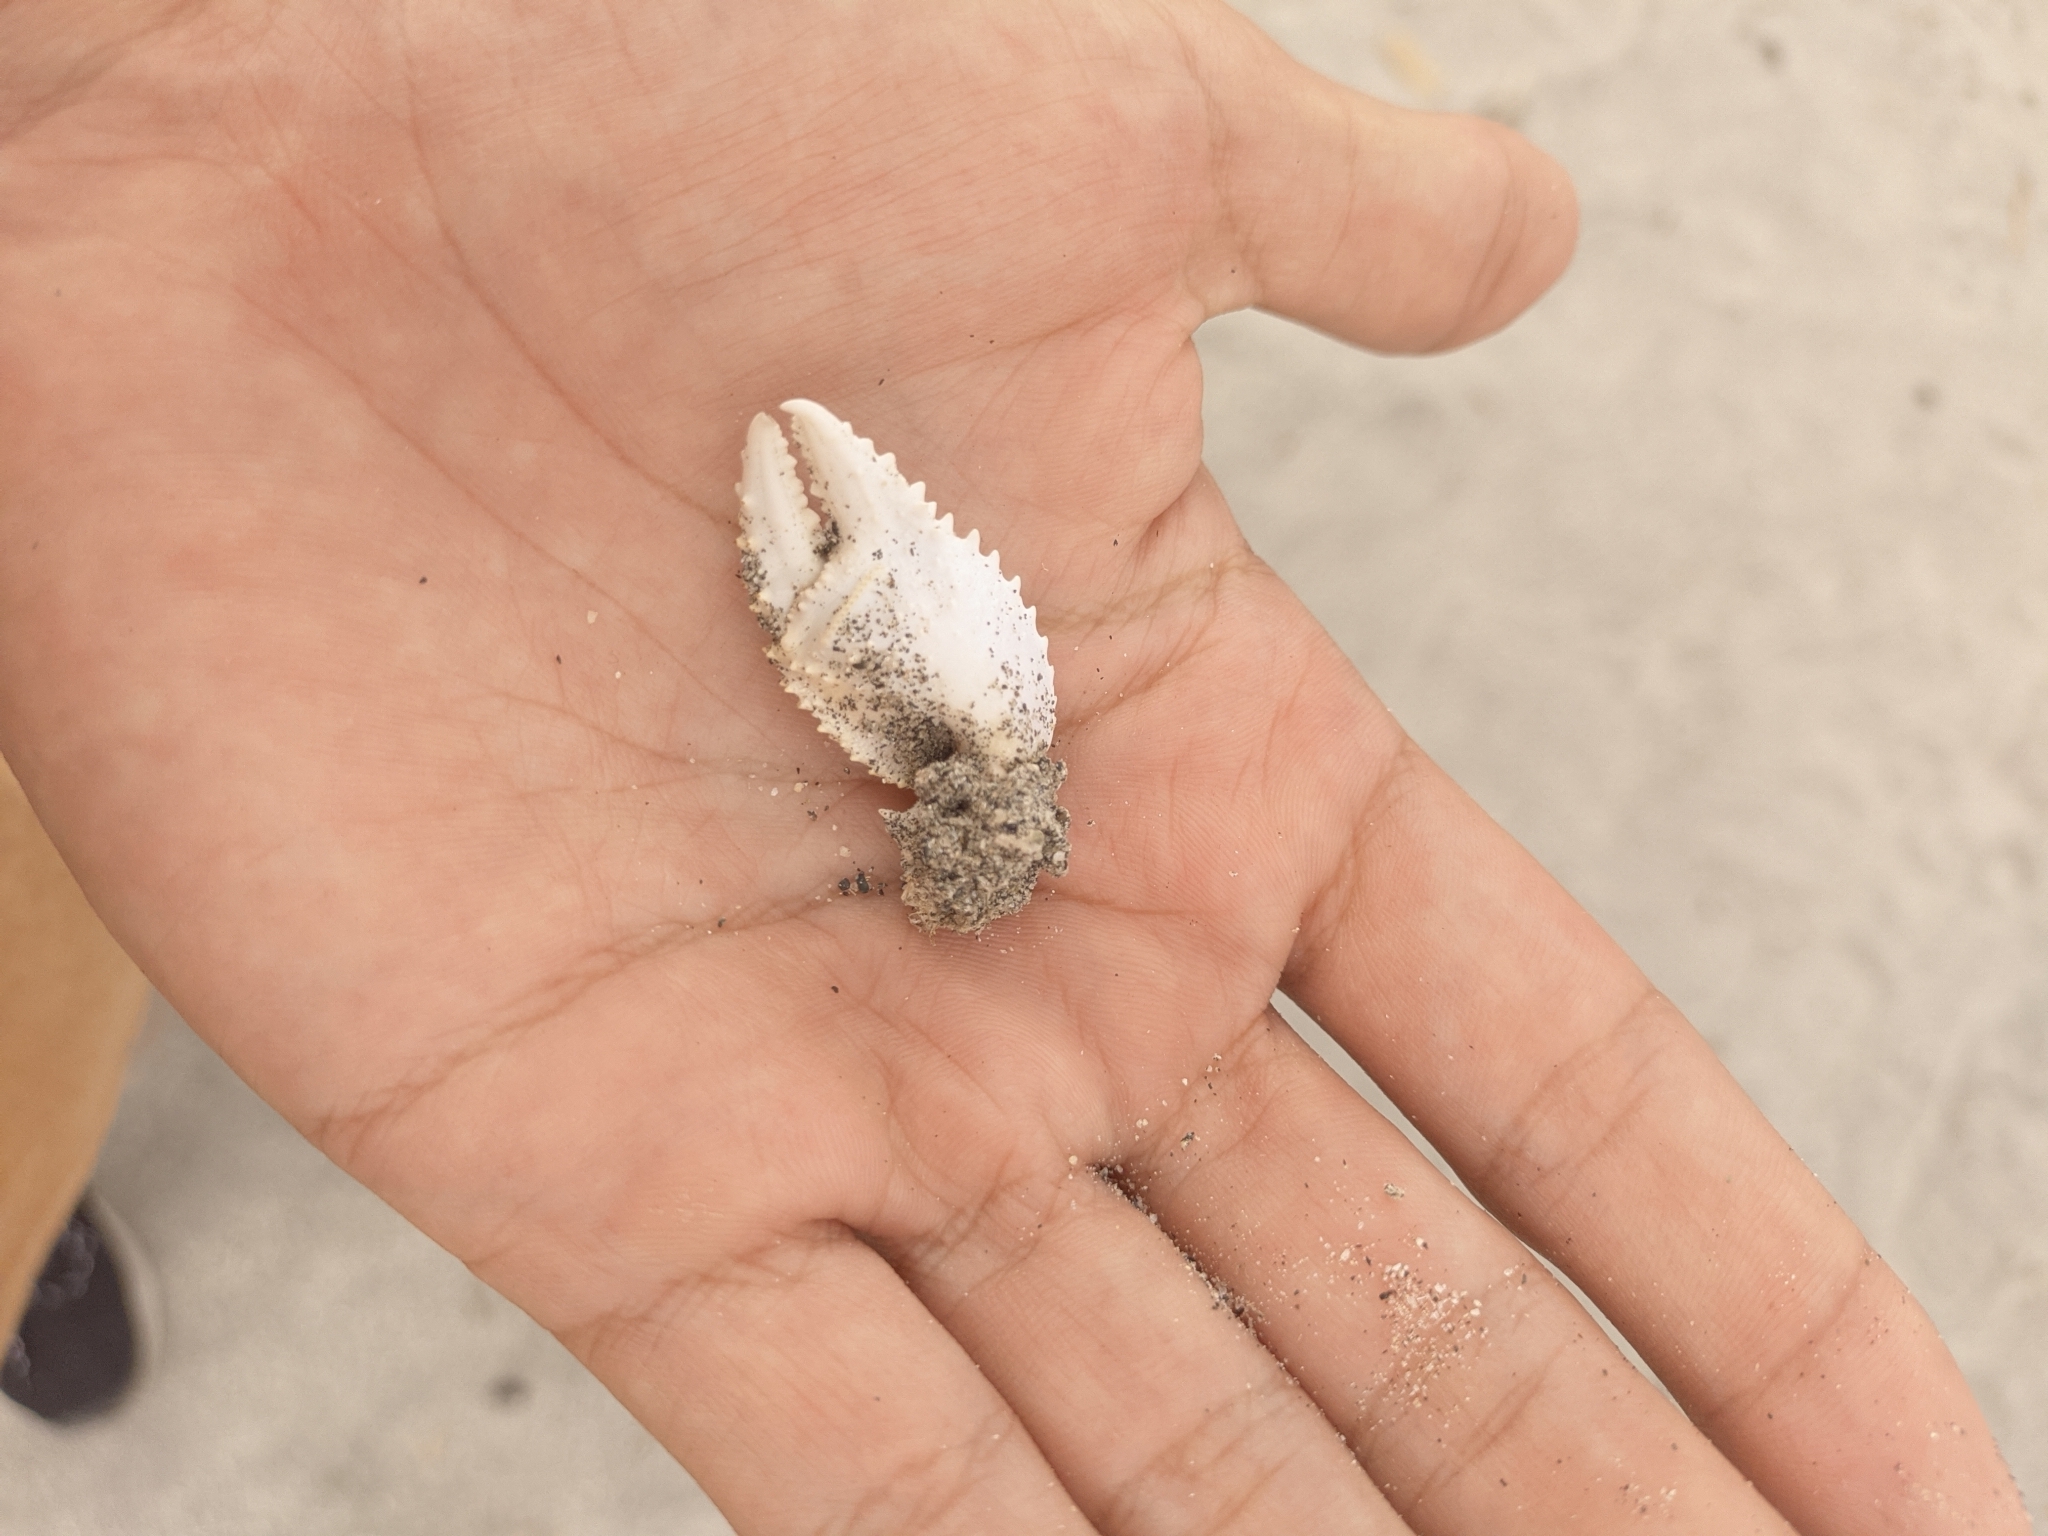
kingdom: Animalia
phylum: Arthropoda
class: Malacostraca
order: Decapoda
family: Ocypodidae
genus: Ocypode
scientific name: Ocypode quadrata
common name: Ghost crab
